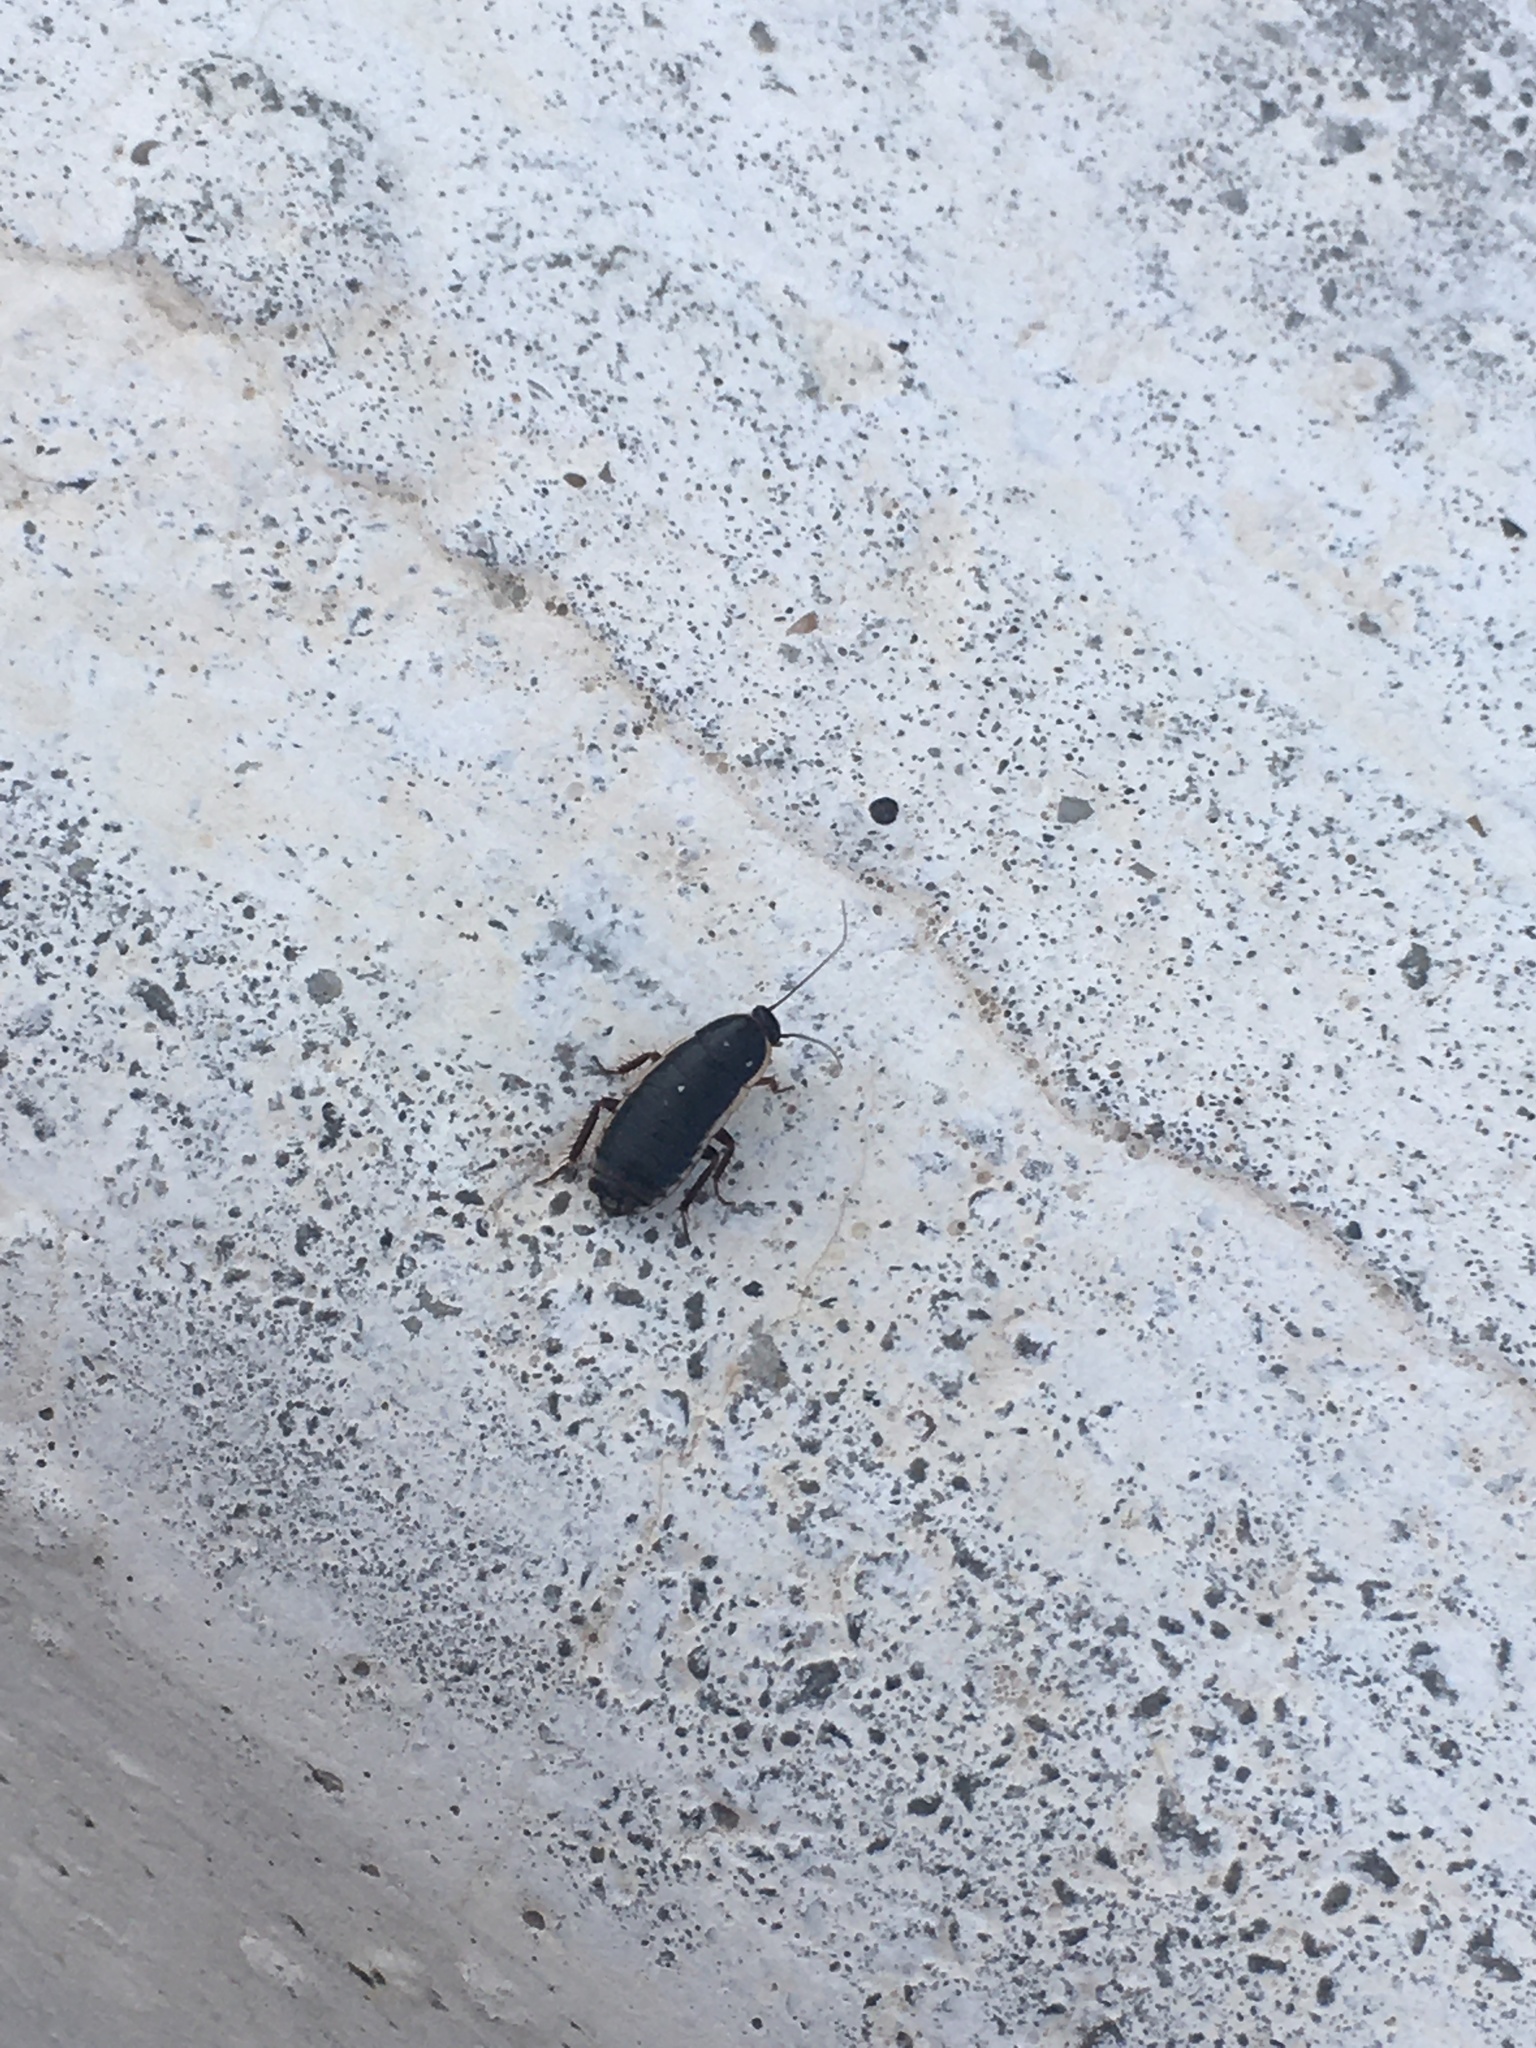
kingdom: Animalia
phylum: Arthropoda
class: Insecta
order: Blattodea
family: Ectobiidae
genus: Loboptera
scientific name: Loboptera decipiens
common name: Lobe-winged cockroach
